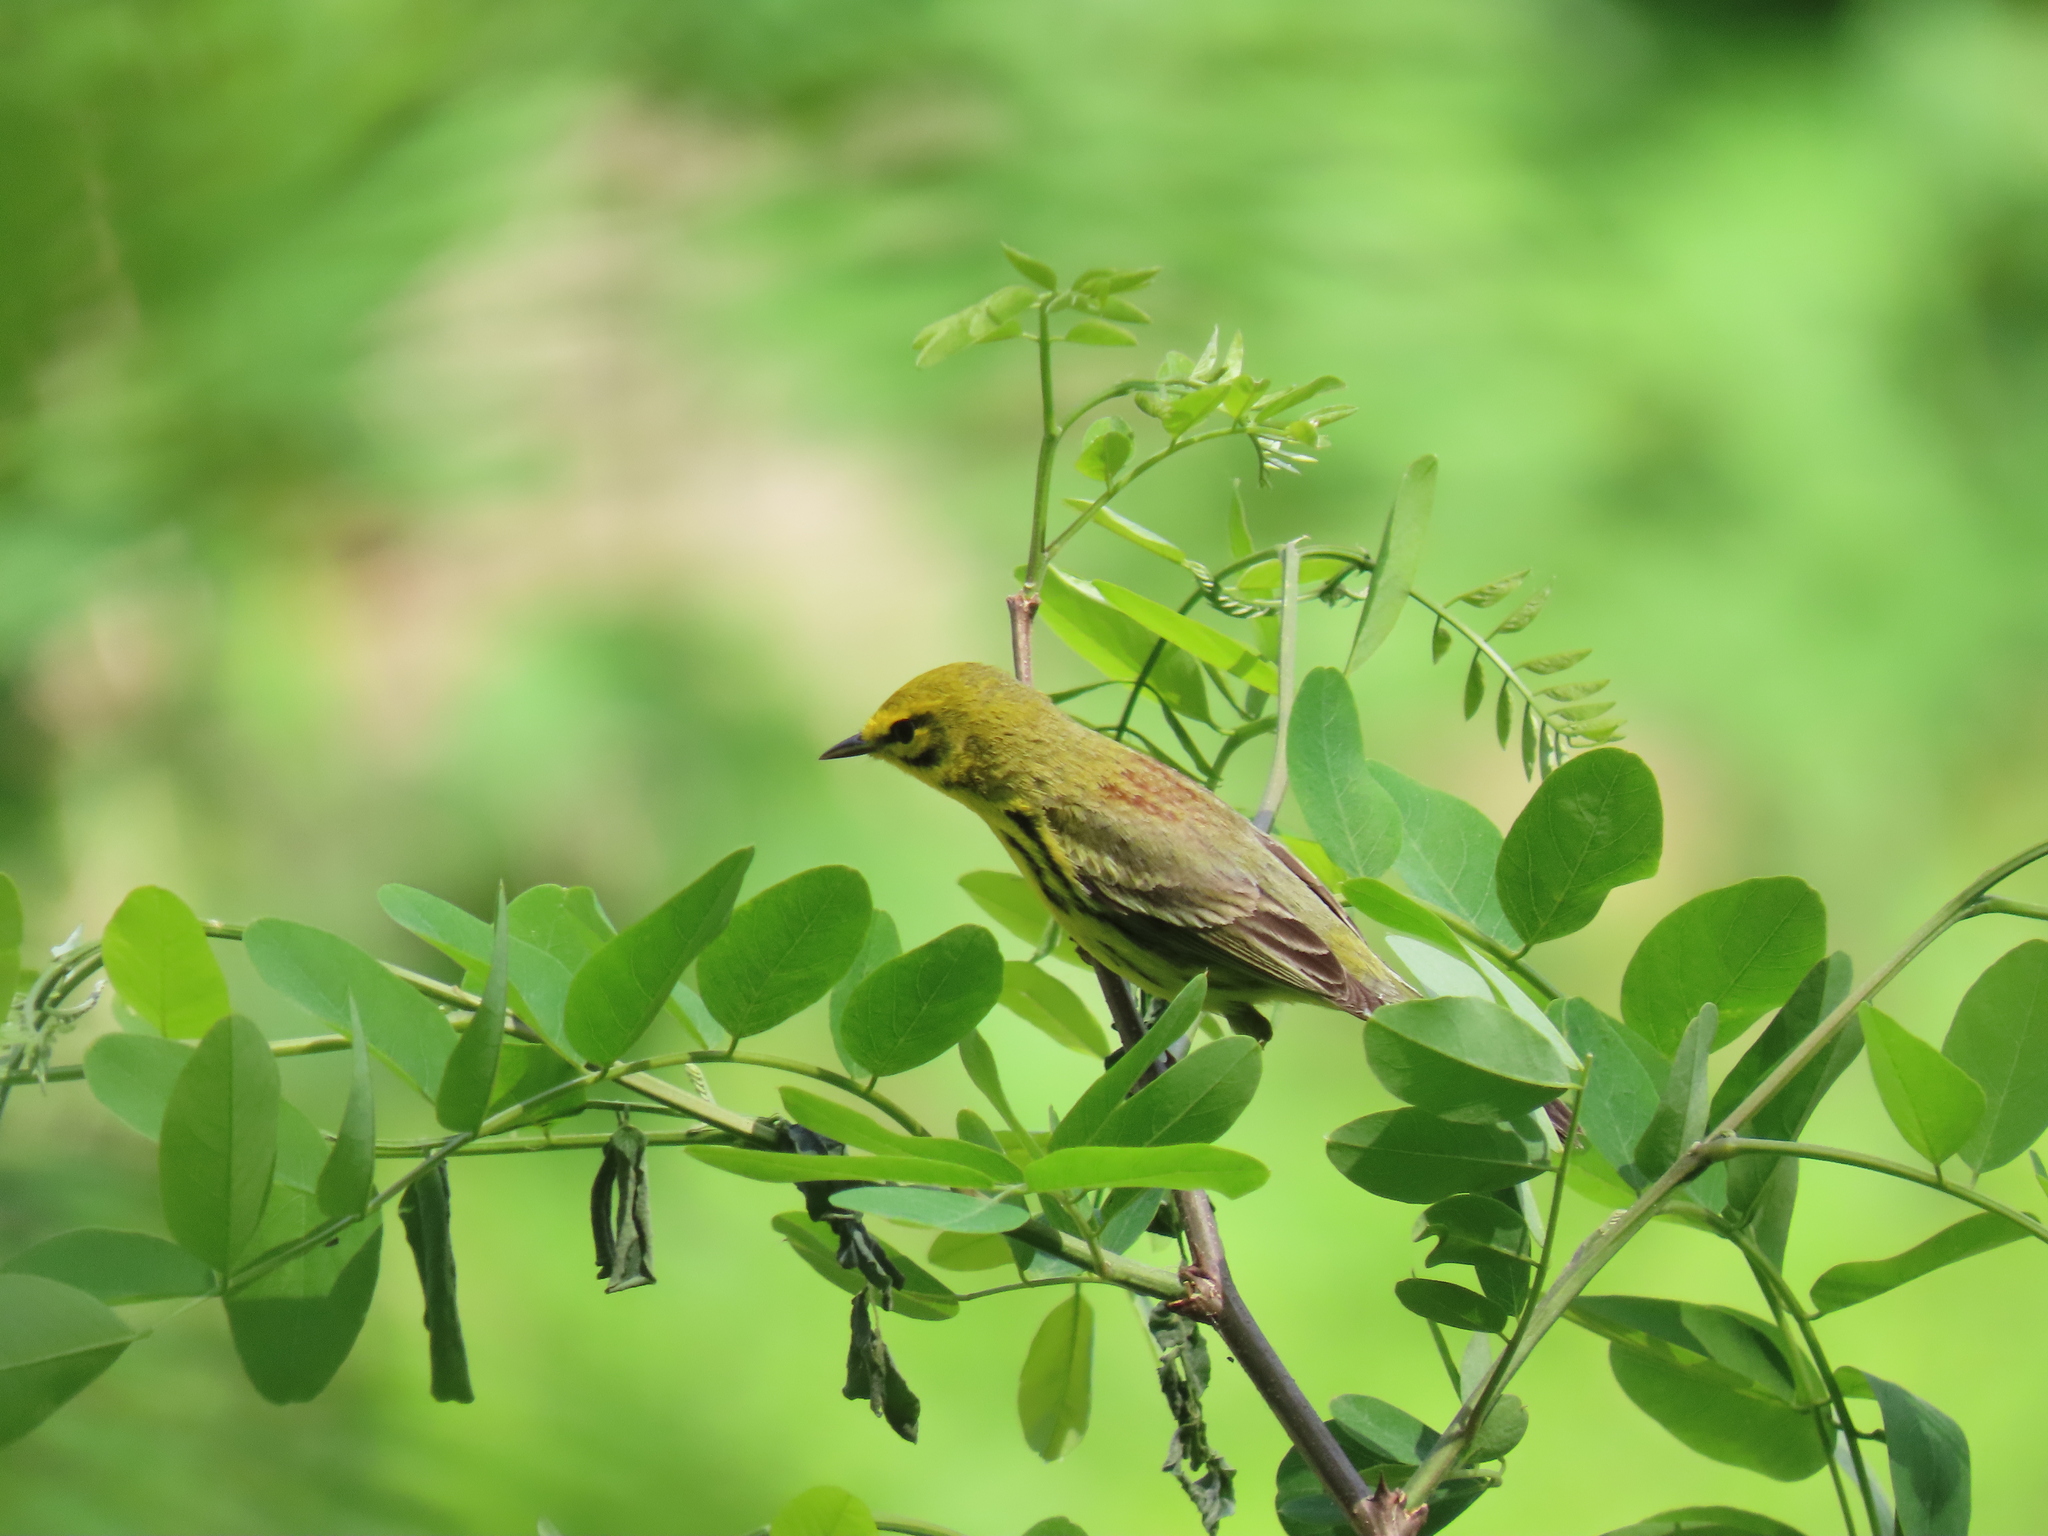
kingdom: Animalia
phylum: Chordata
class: Aves
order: Passeriformes
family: Parulidae
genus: Setophaga
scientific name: Setophaga discolor
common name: Prairie warbler
